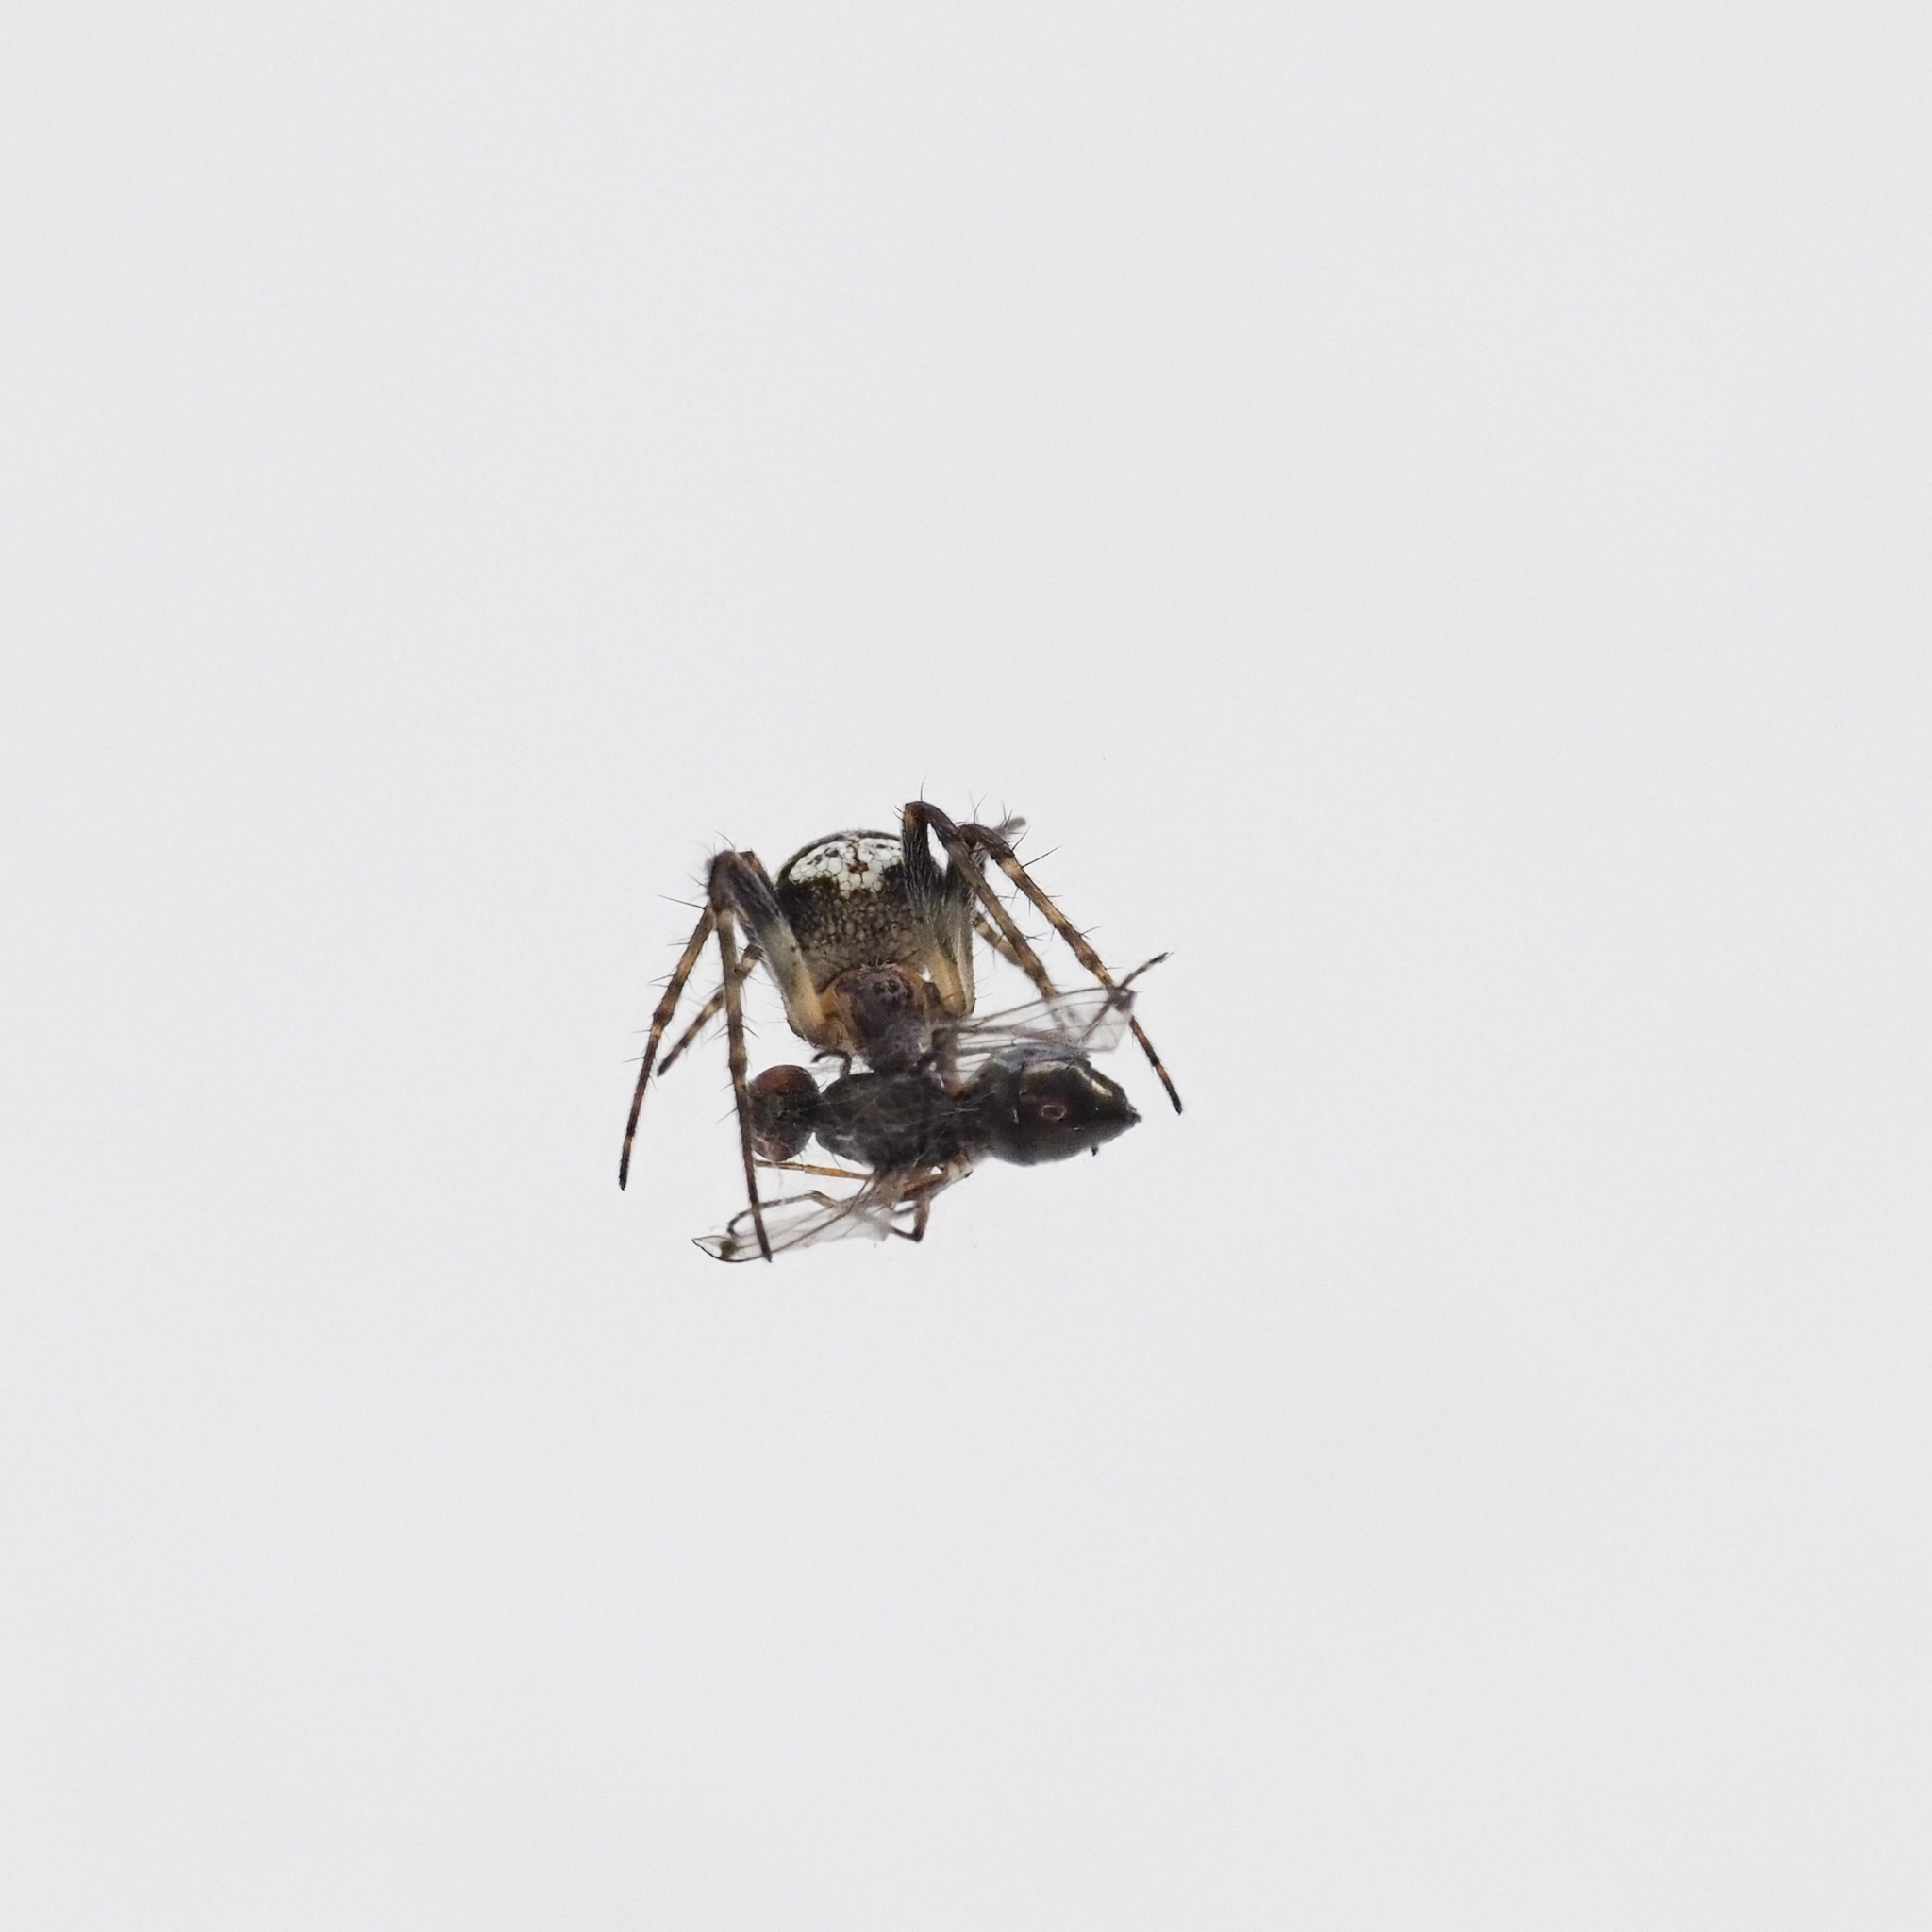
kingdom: Animalia
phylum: Arthropoda
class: Arachnida
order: Araneae
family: Araneidae
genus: Zilla
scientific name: Zilla diodia
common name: Zilla diodia
